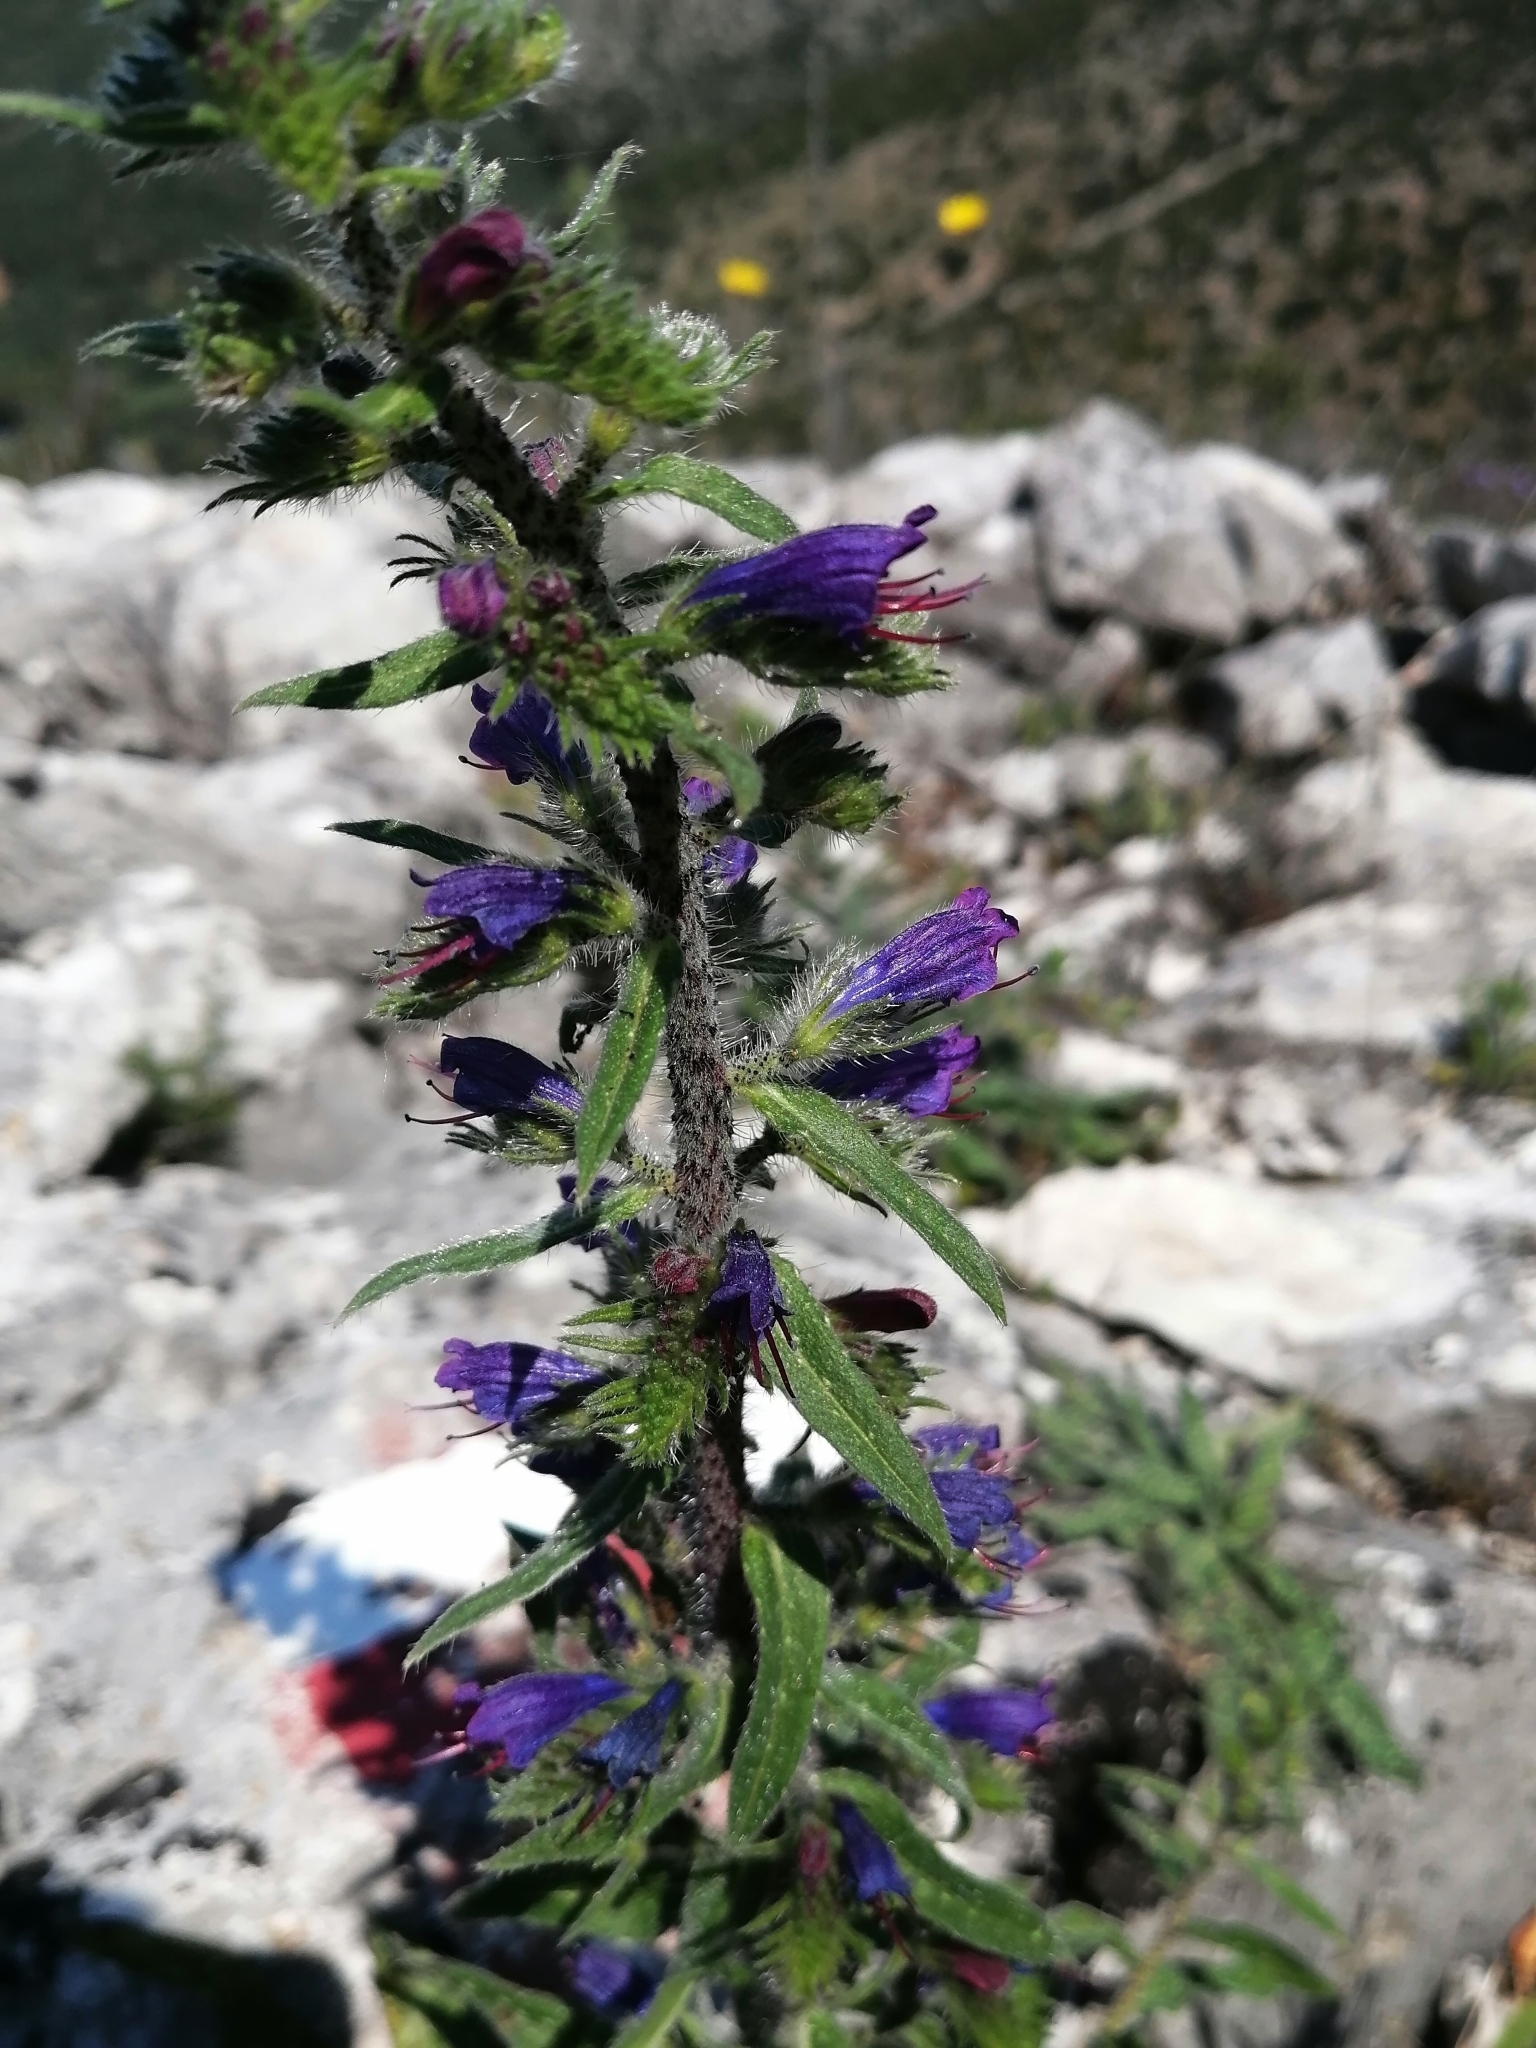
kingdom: Plantae
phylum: Tracheophyta
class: Magnoliopsida
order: Boraginales
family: Boraginaceae
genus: Echium
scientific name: Echium vulgare
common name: Common viper's bugloss
